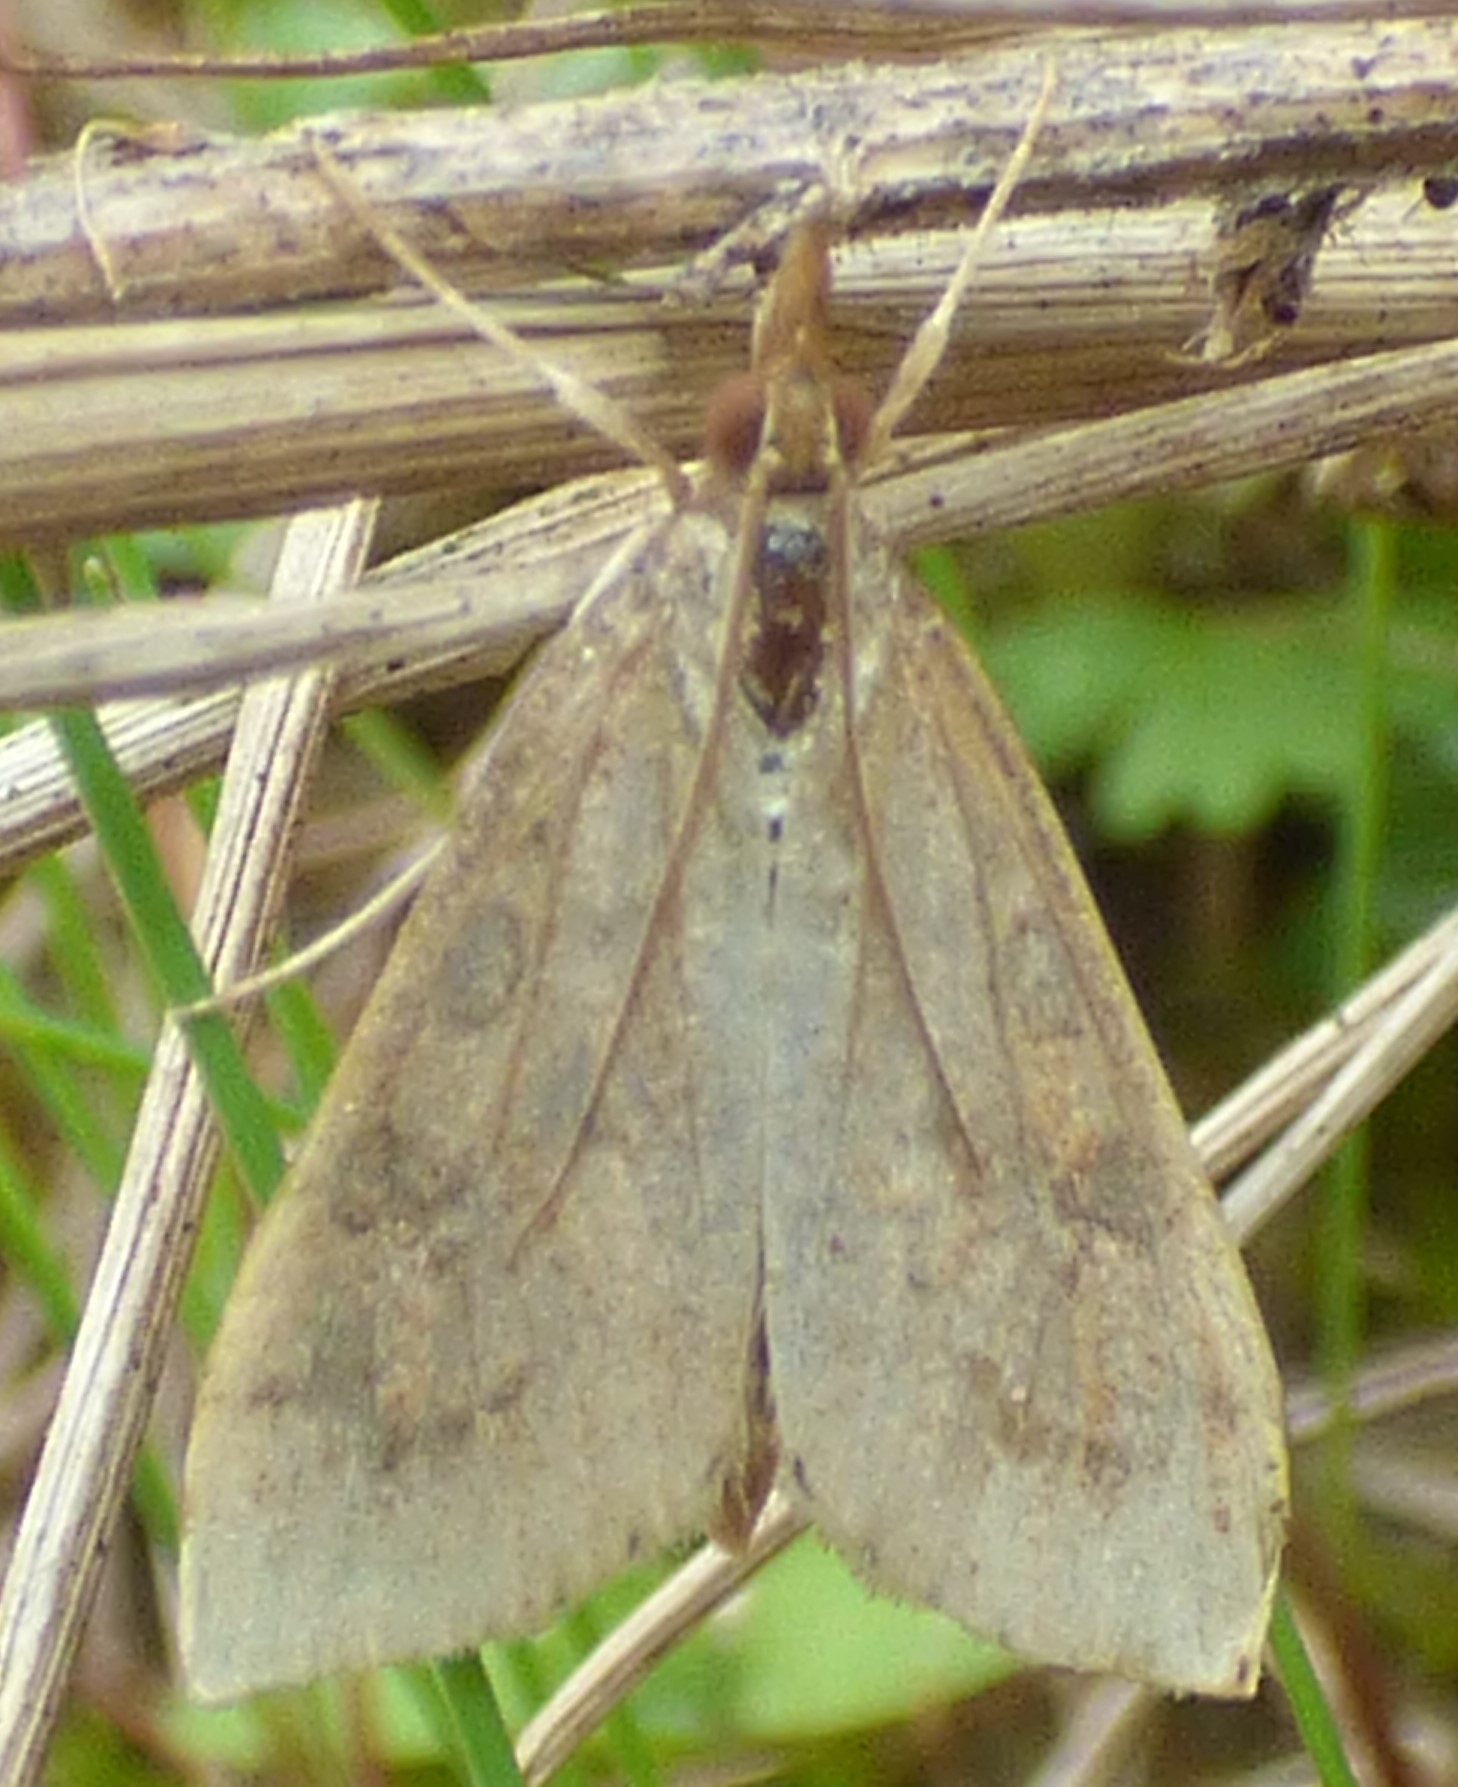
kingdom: Animalia
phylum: Arthropoda
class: Insecta
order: Lepidoptera
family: Crambidae
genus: Udea
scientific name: Udea rubigalis
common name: Celery leaftier moth
